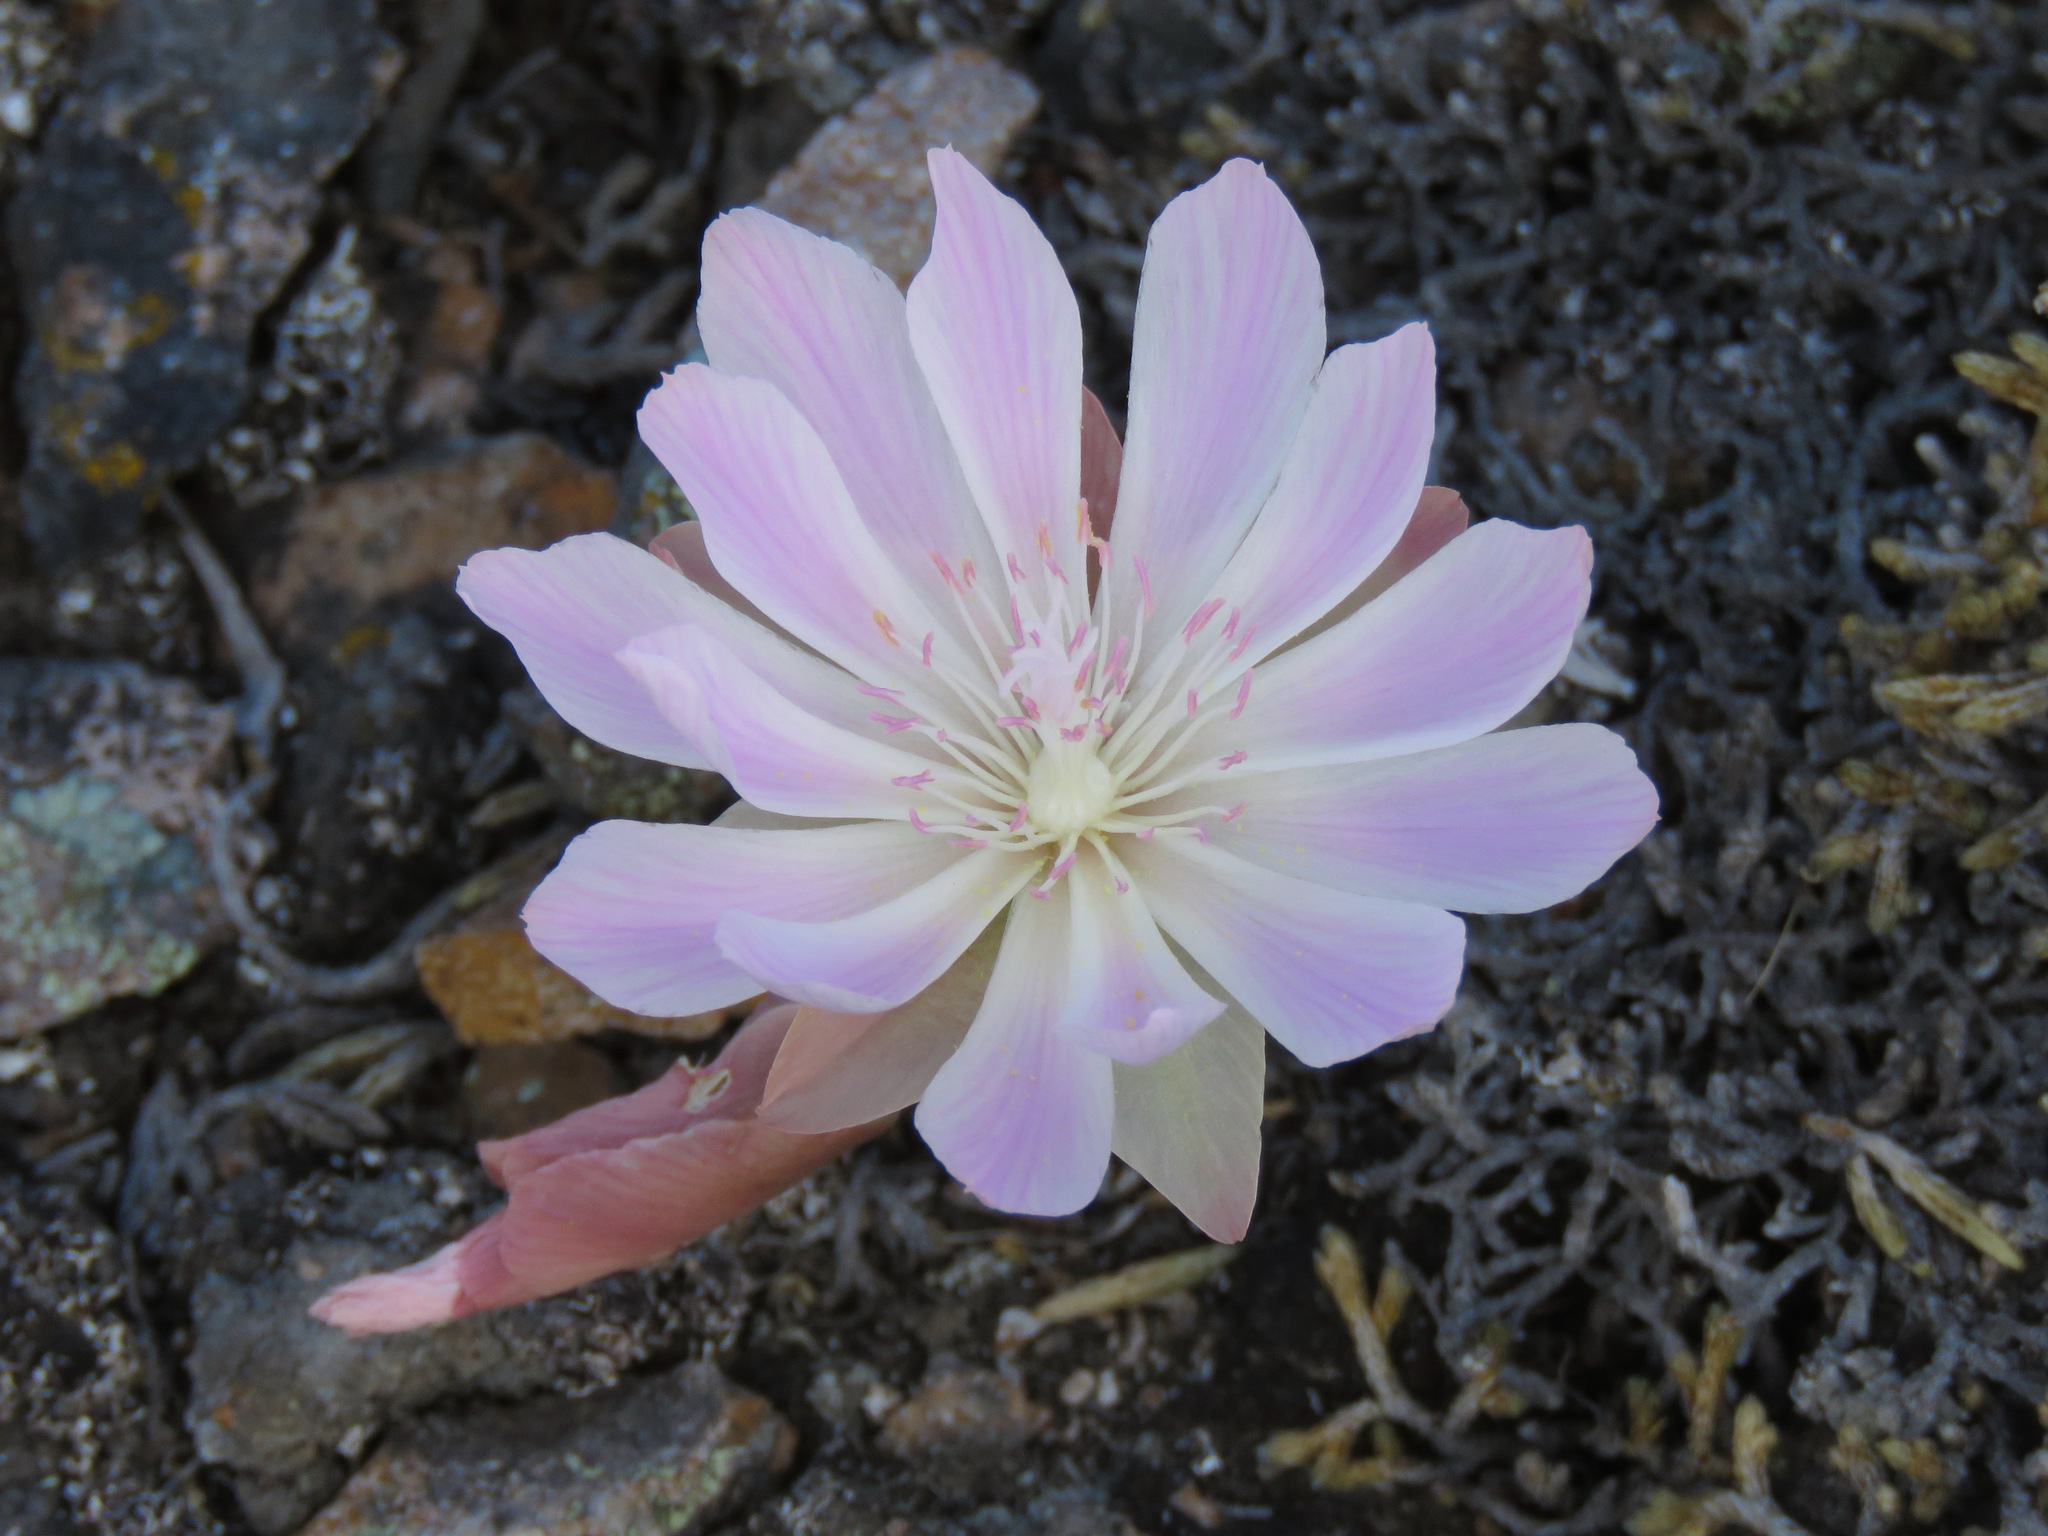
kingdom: Plantae
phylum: Tracheophyta
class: Magnoliopsida
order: Caryophyllales
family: Montiaceae
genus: Lewisia
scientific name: Lewisia rediviva
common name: Bitter-root
